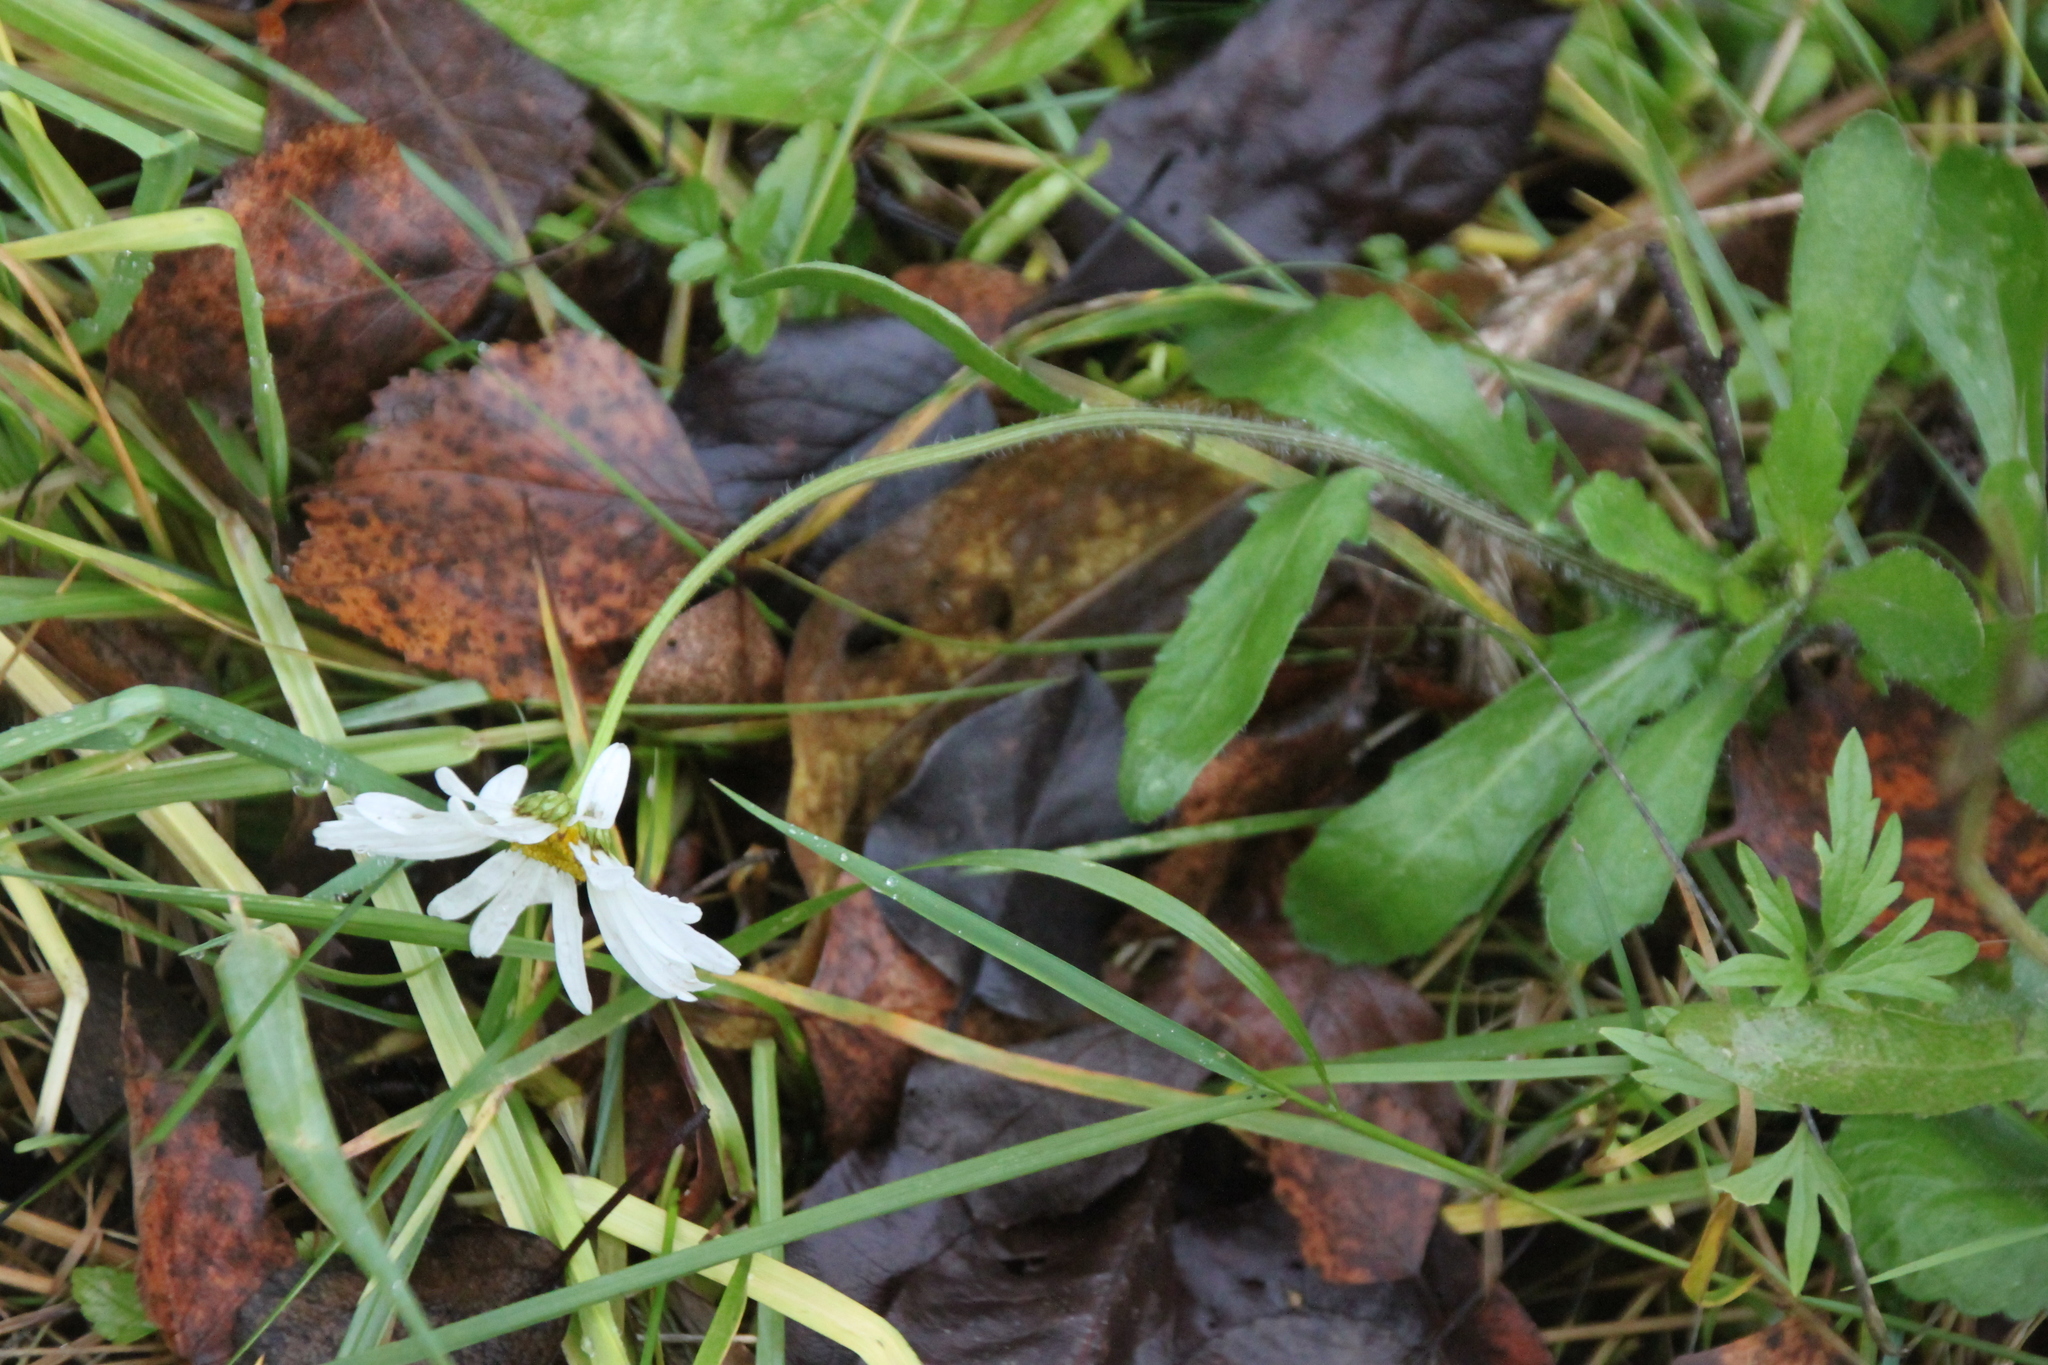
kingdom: Plantae
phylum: Tracheophyta
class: Magnoliopsida
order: Asterales
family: Asteraceae
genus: Leucanthemum
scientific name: Leucanthemum vulgare
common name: Oxeye daisy
